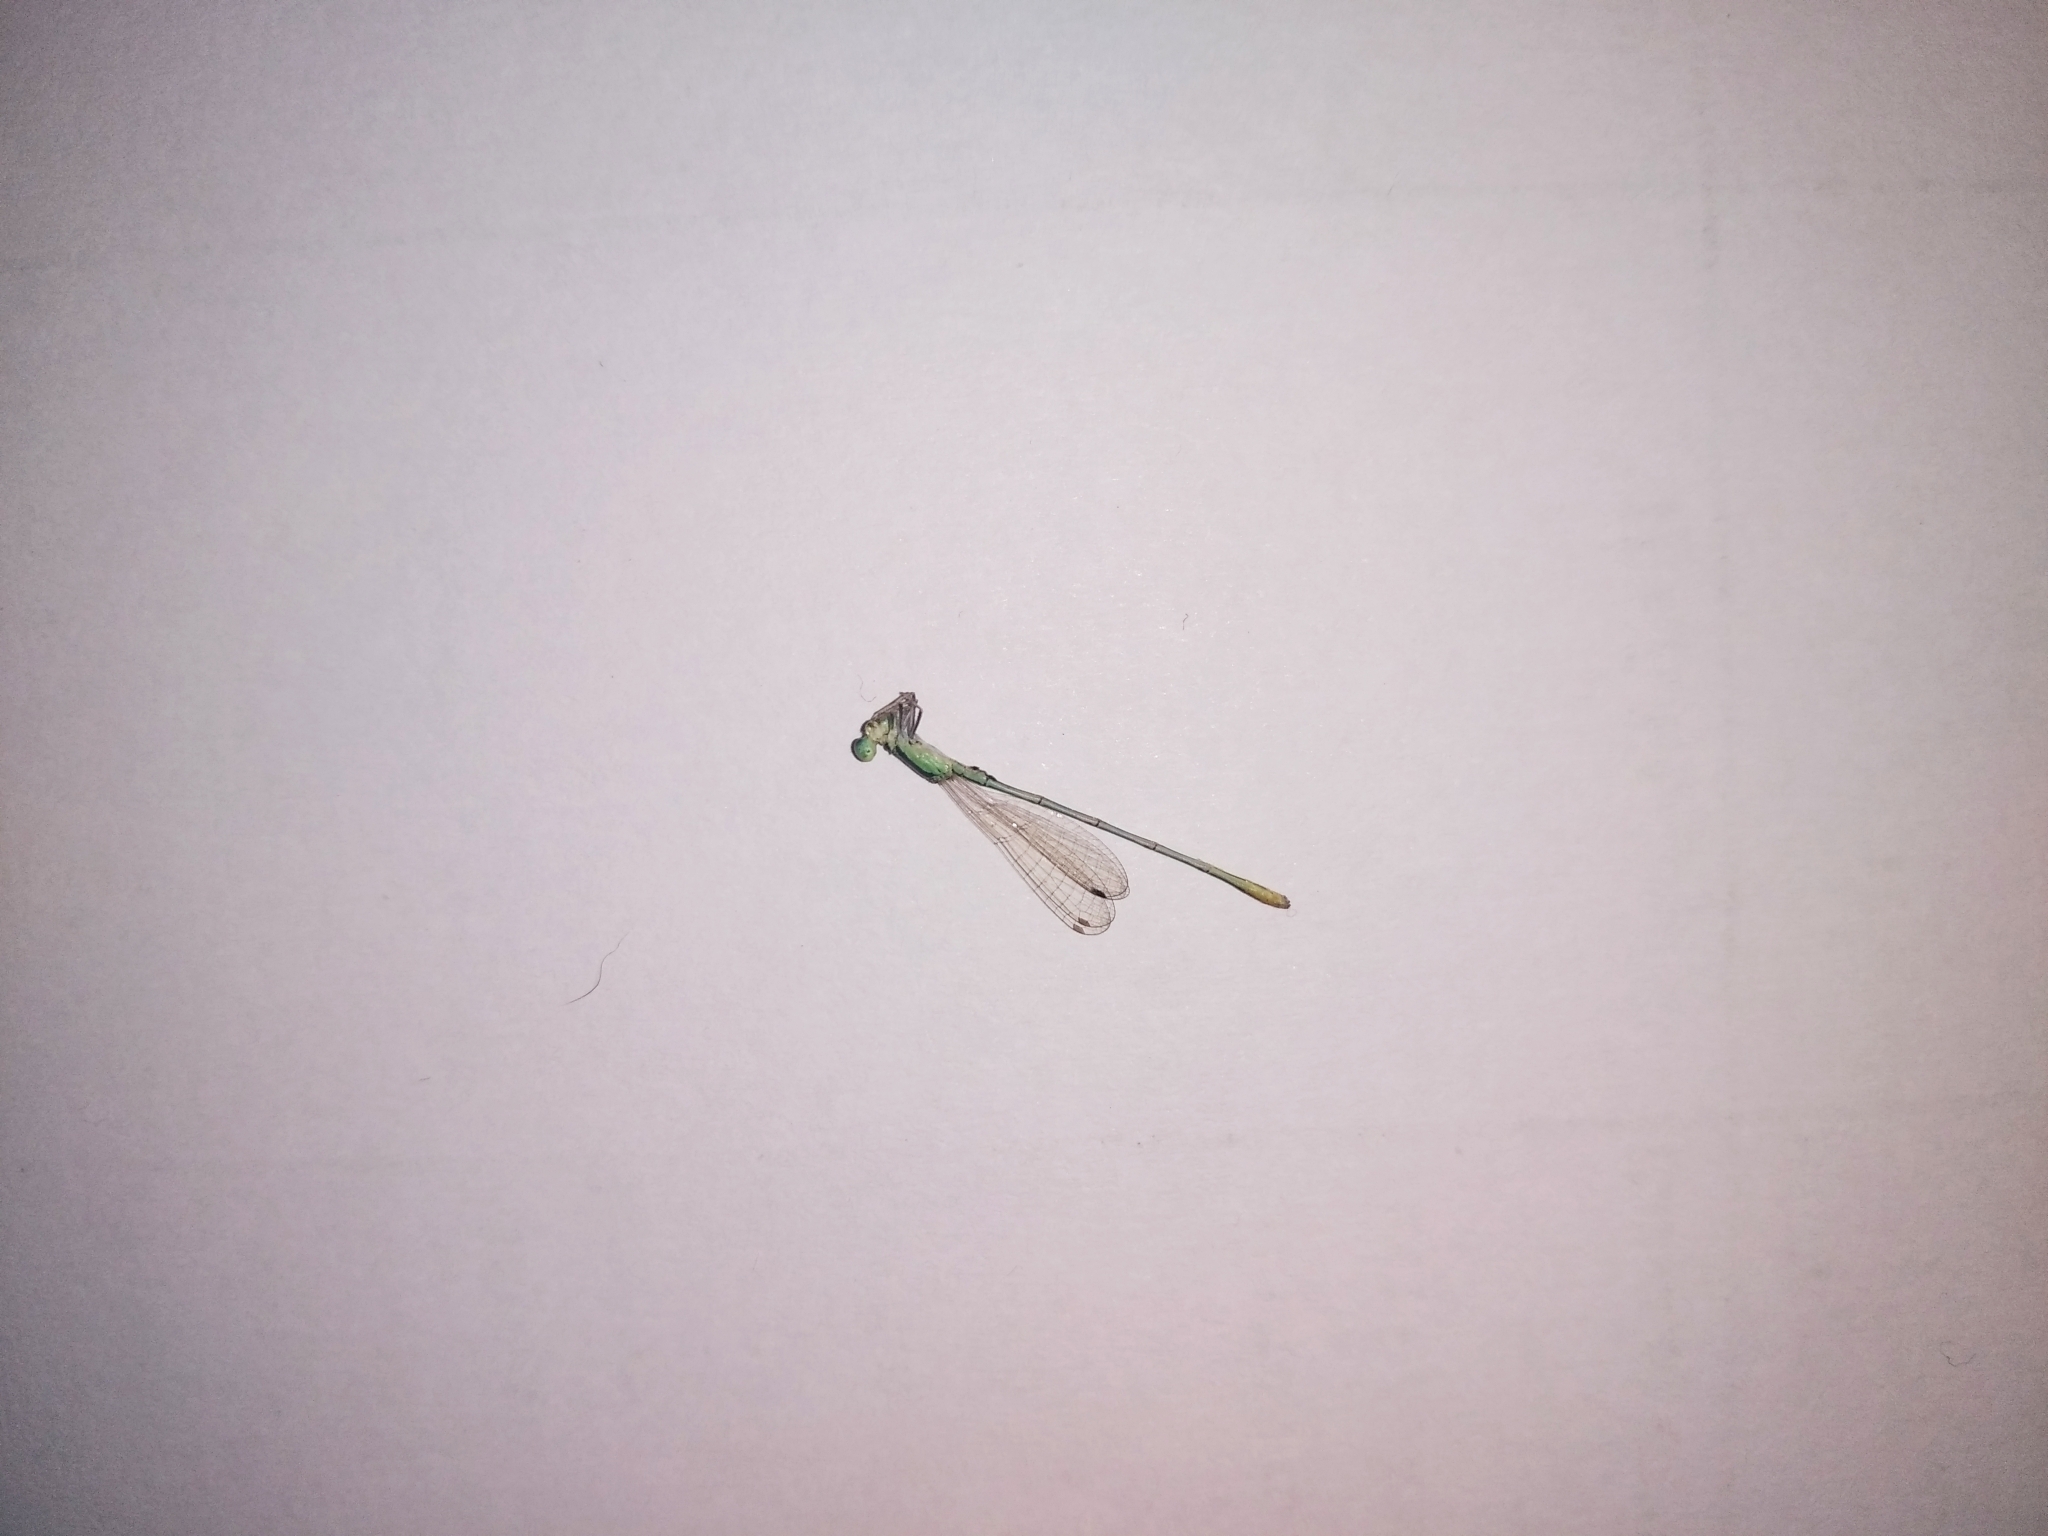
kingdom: Animalia
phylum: Arthropoda
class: Insecta
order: Odonata
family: Coenagrionidae
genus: Agriocnemis
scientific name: Agriocnemis pygmaea
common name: Pygmy wisp
